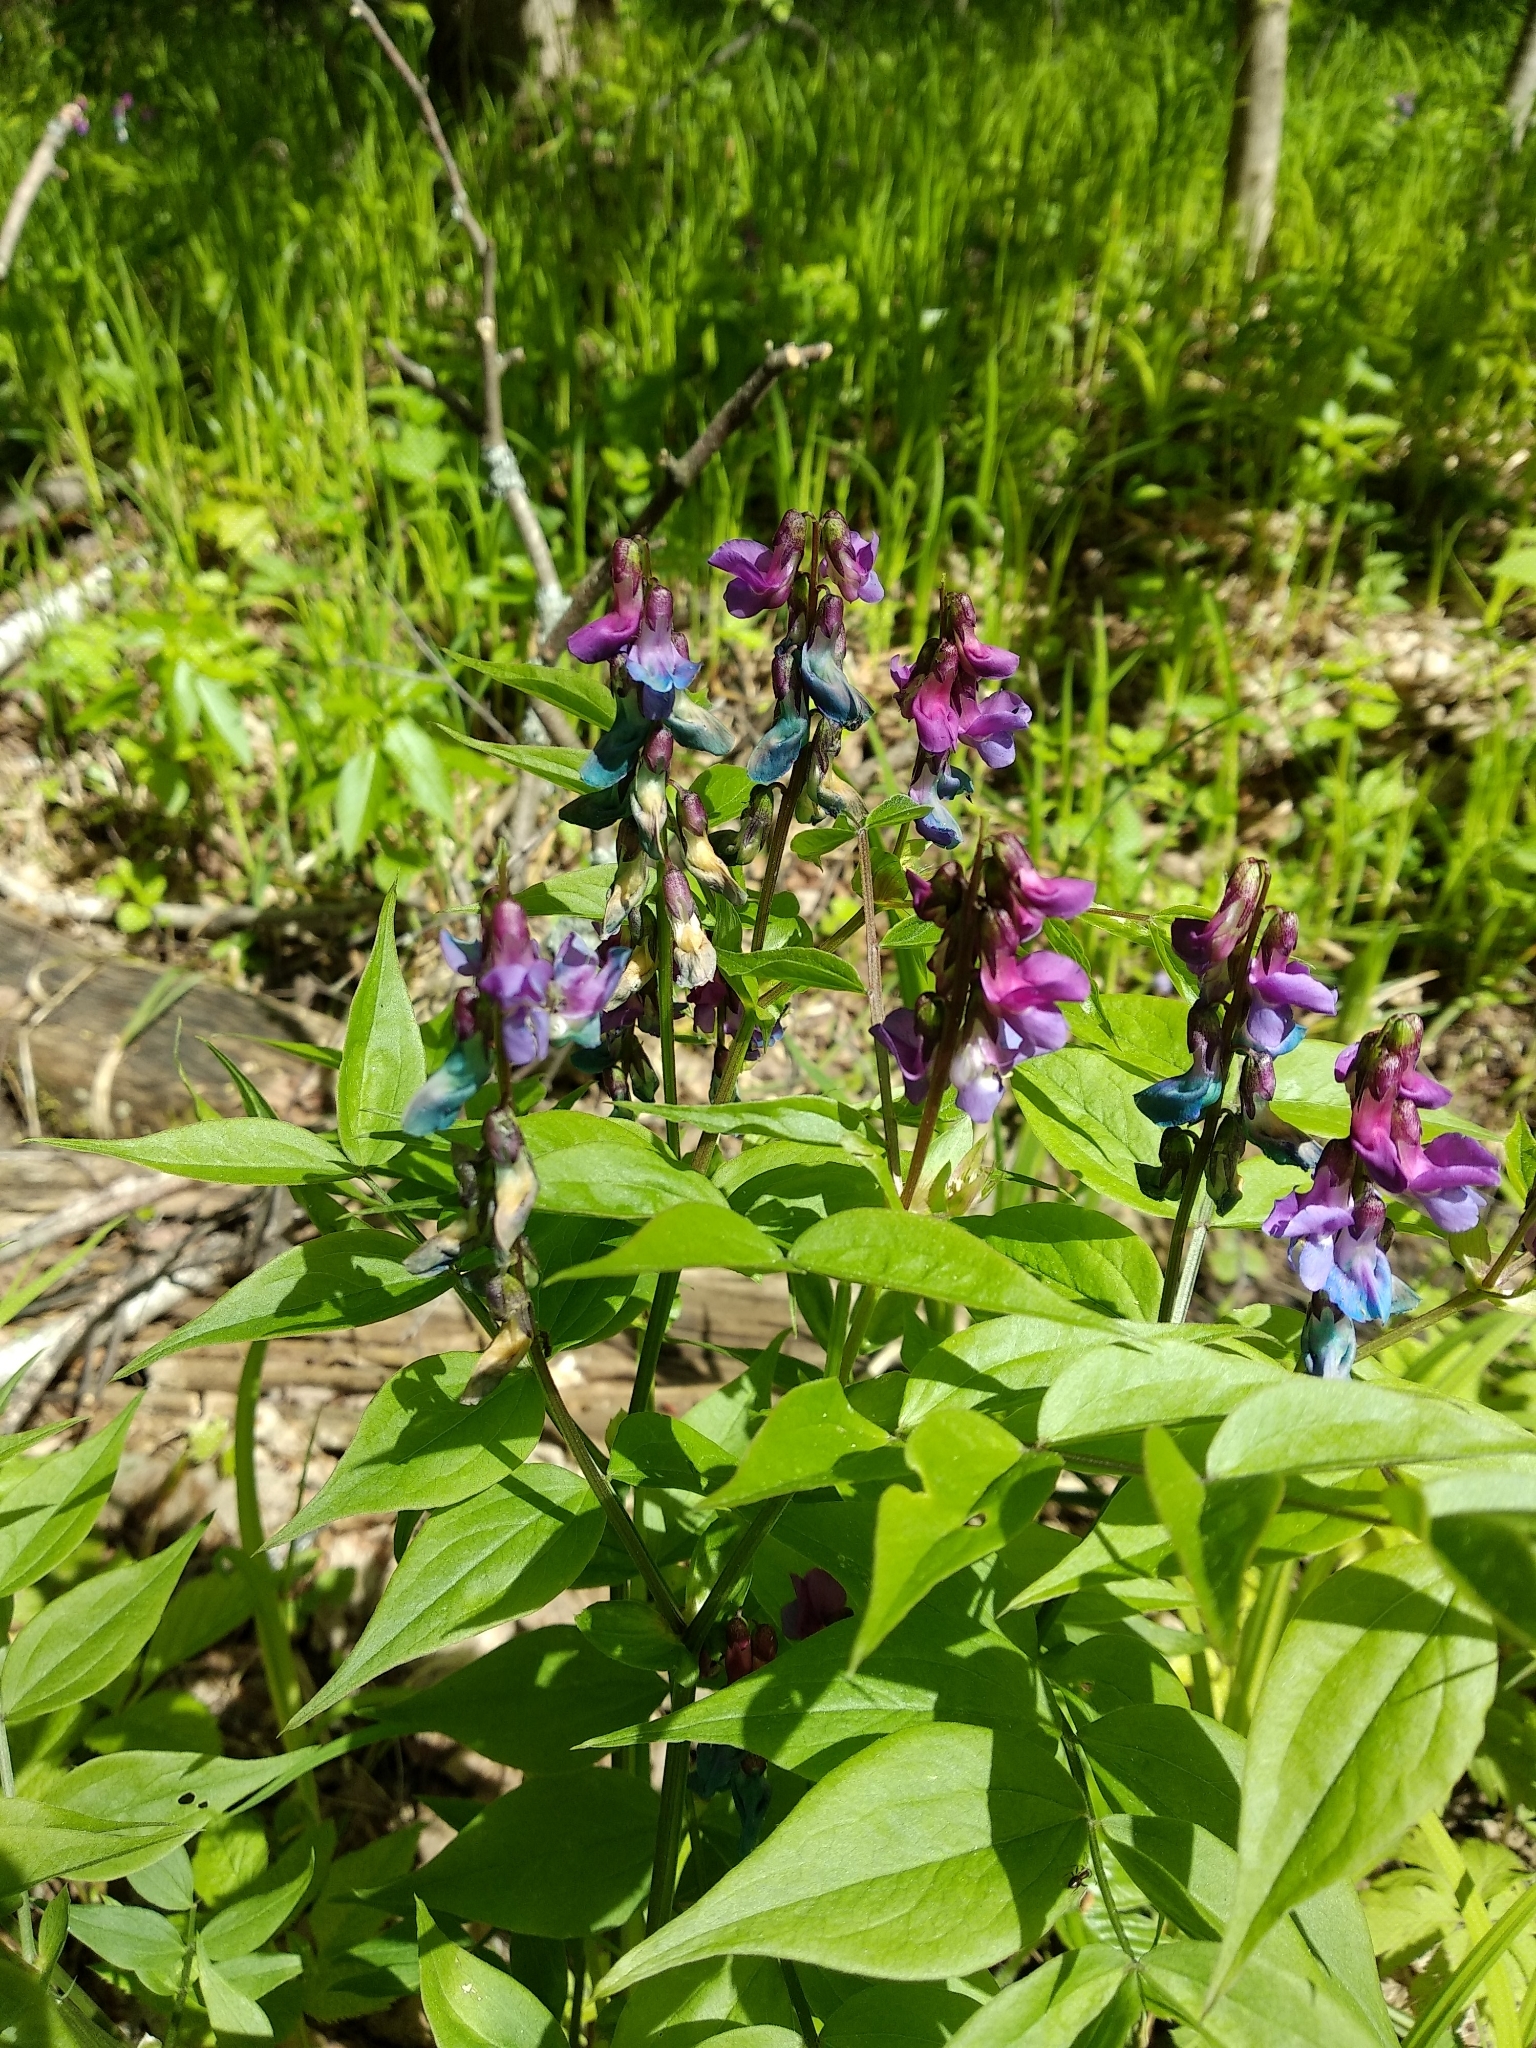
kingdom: Plantae
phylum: Tracheophyta
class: Magnoliopsida
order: Fabales
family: Fabaceae
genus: Lathyrus
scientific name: Lathyrus vernus
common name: Spring pea
